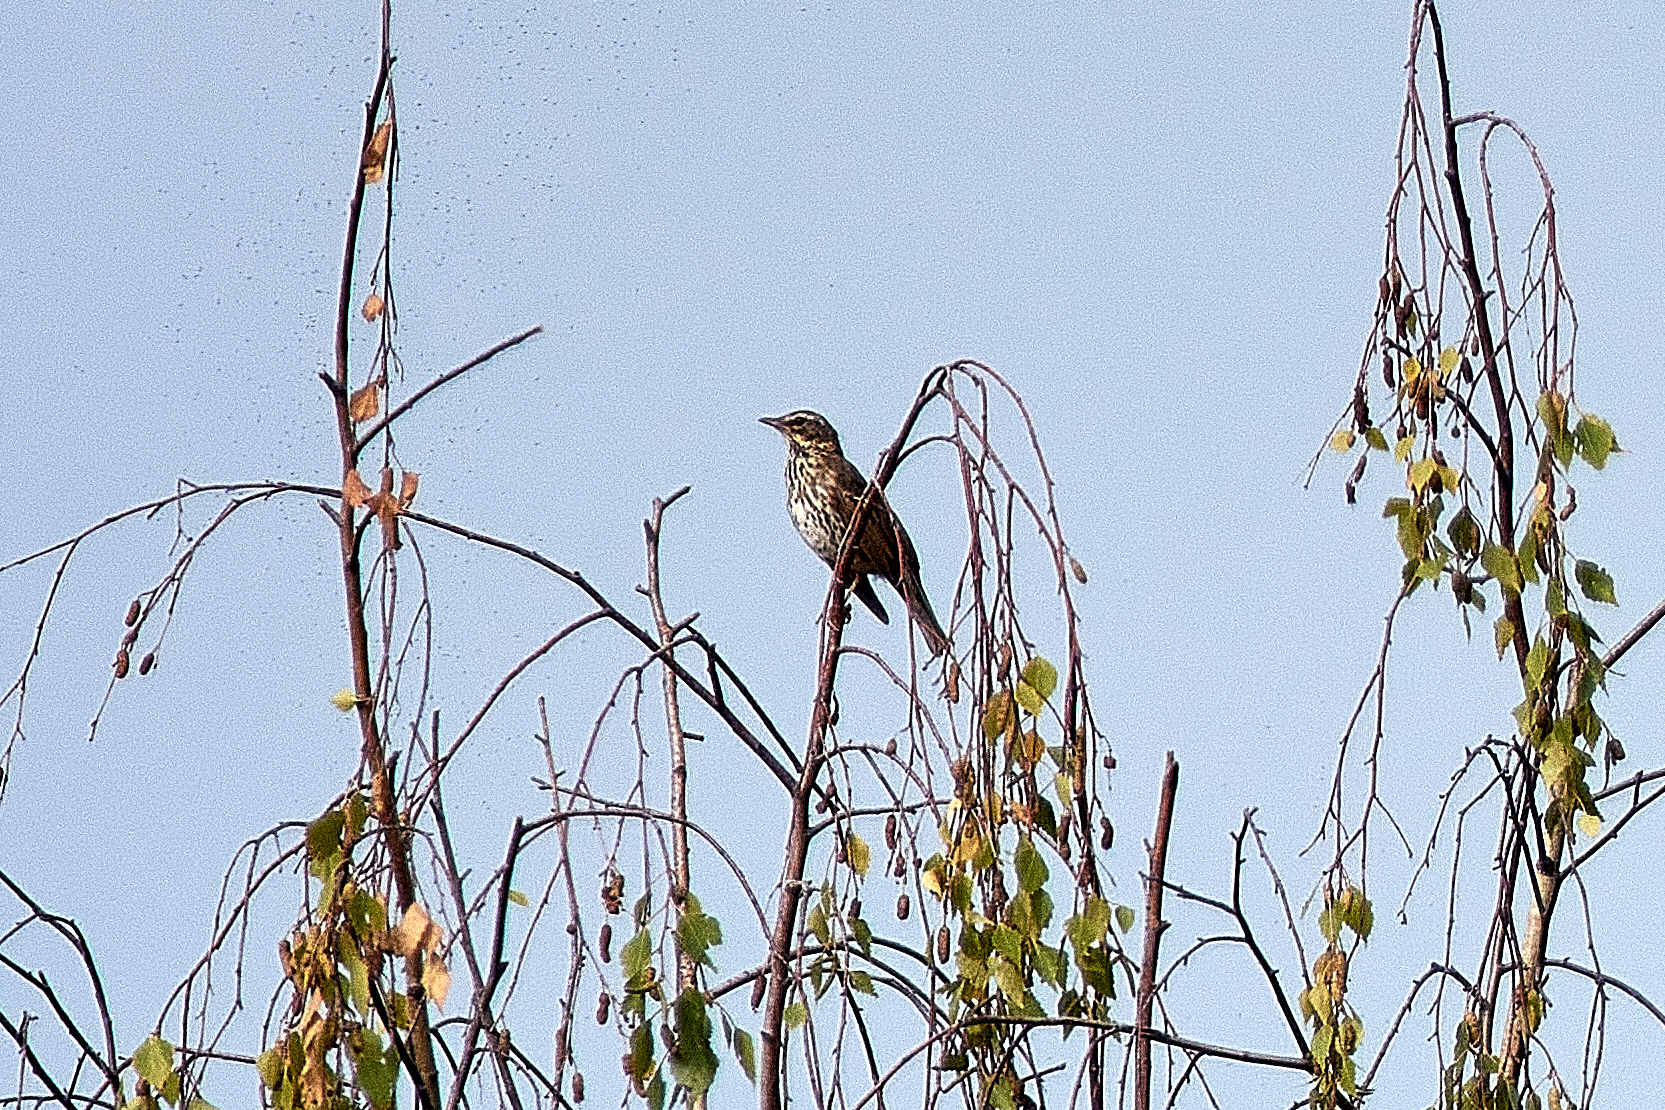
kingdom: Animalia
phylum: Chordata
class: Aves
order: Passeriformes
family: Turdidae
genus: Turdus
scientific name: Turdus iliacus
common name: Redwing
